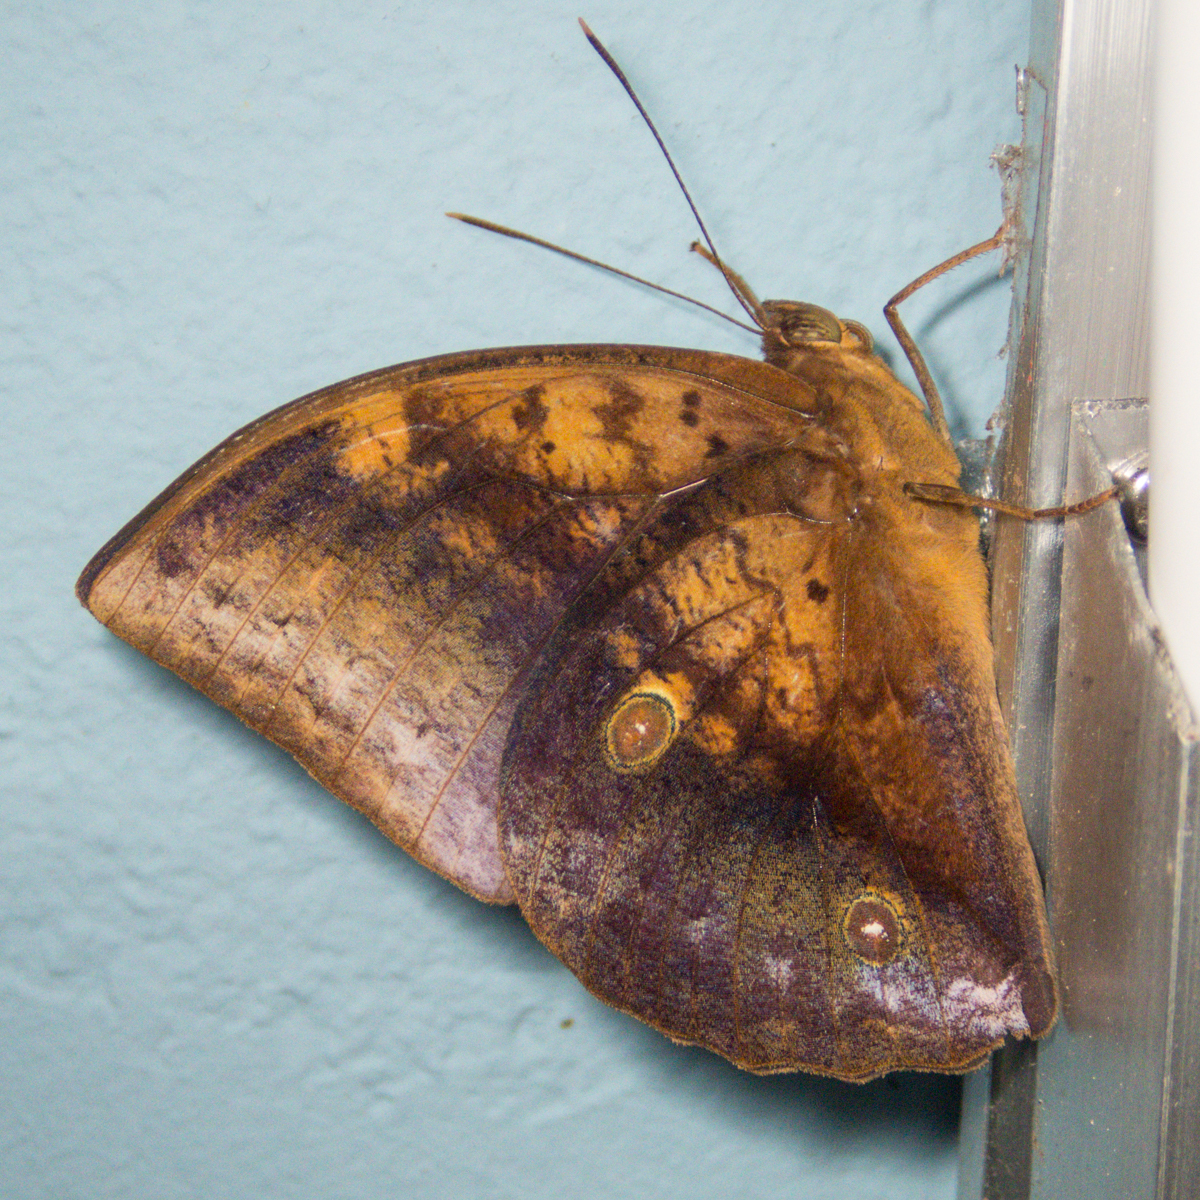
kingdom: Animalia
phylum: Arthropoda
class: Insecta
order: Lepidoptera
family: Nymphalidae
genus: Discophora
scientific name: Discophora timora
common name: Great duffer
